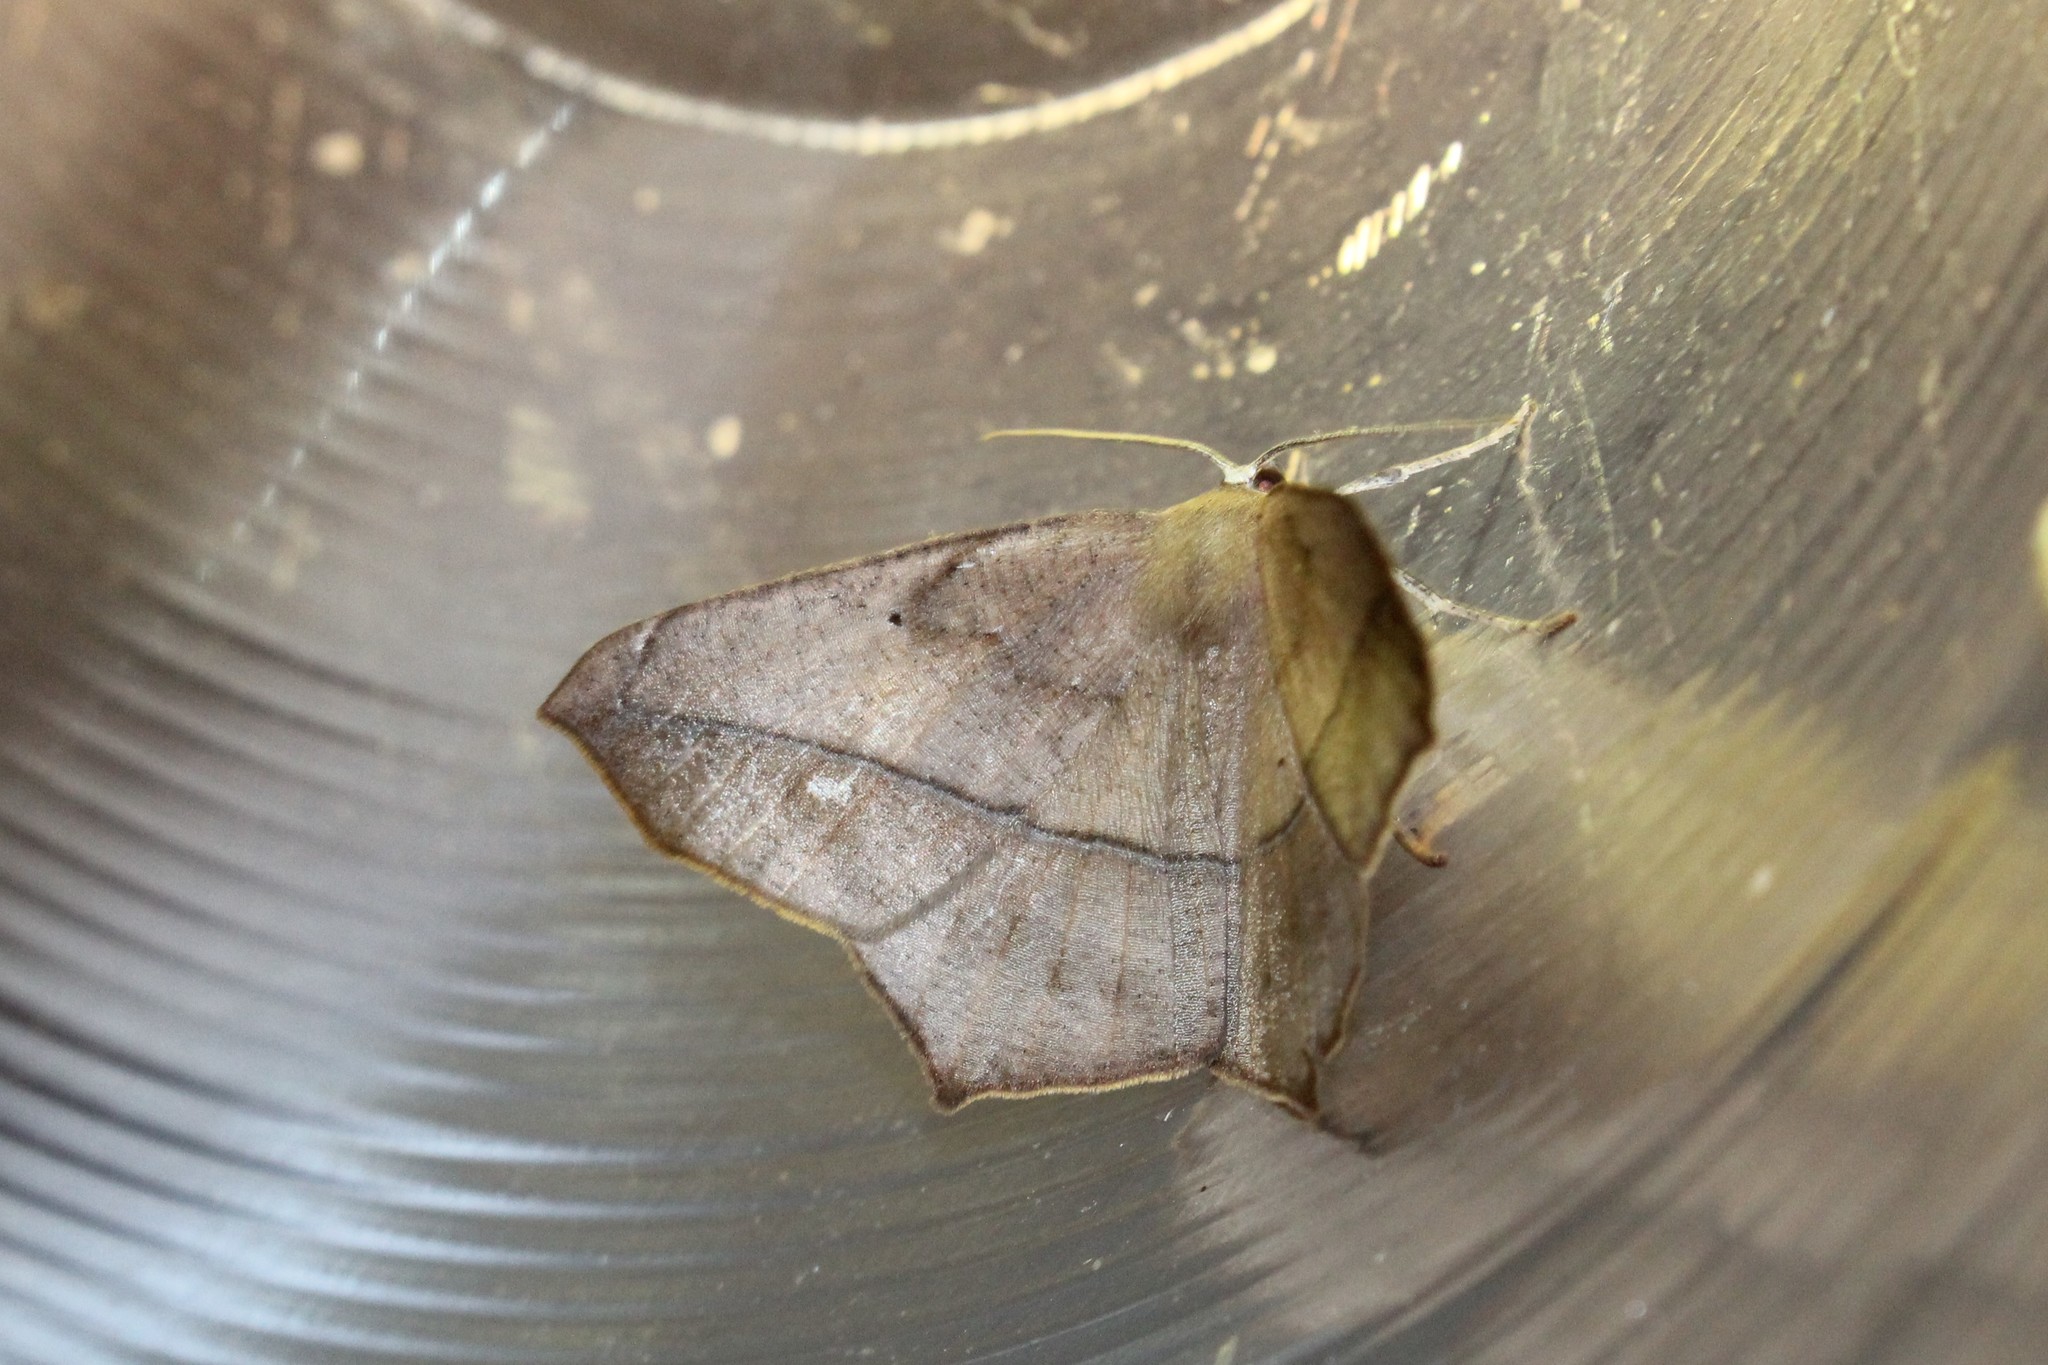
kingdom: Animalia
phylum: Arthropoda
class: Insecta
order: Lepidoptera
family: Geometridae
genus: Prochoerodes
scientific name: Prochoerodes lineola
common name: Large maple spanworm
